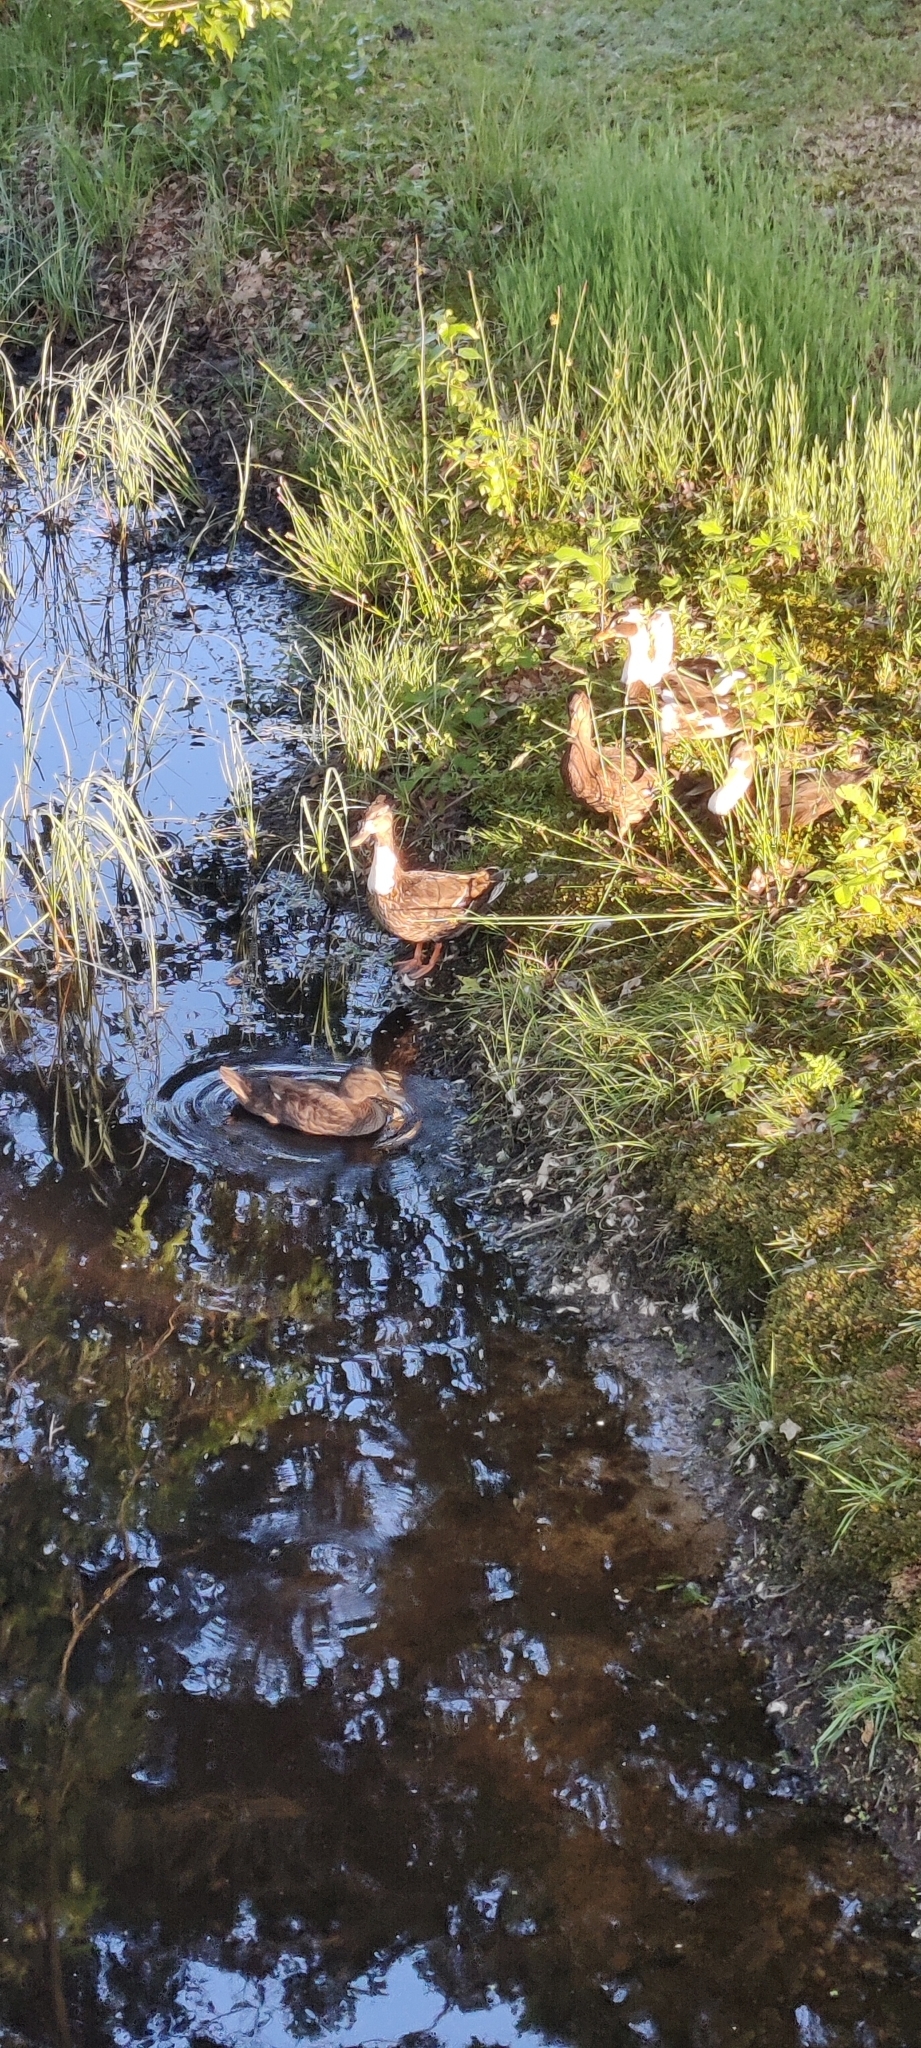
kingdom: Animalia
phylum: Chordata
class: Aves
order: Anseriformes
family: Anatidae
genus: Anas
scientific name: Anas platyrhynchos
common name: Mallard
